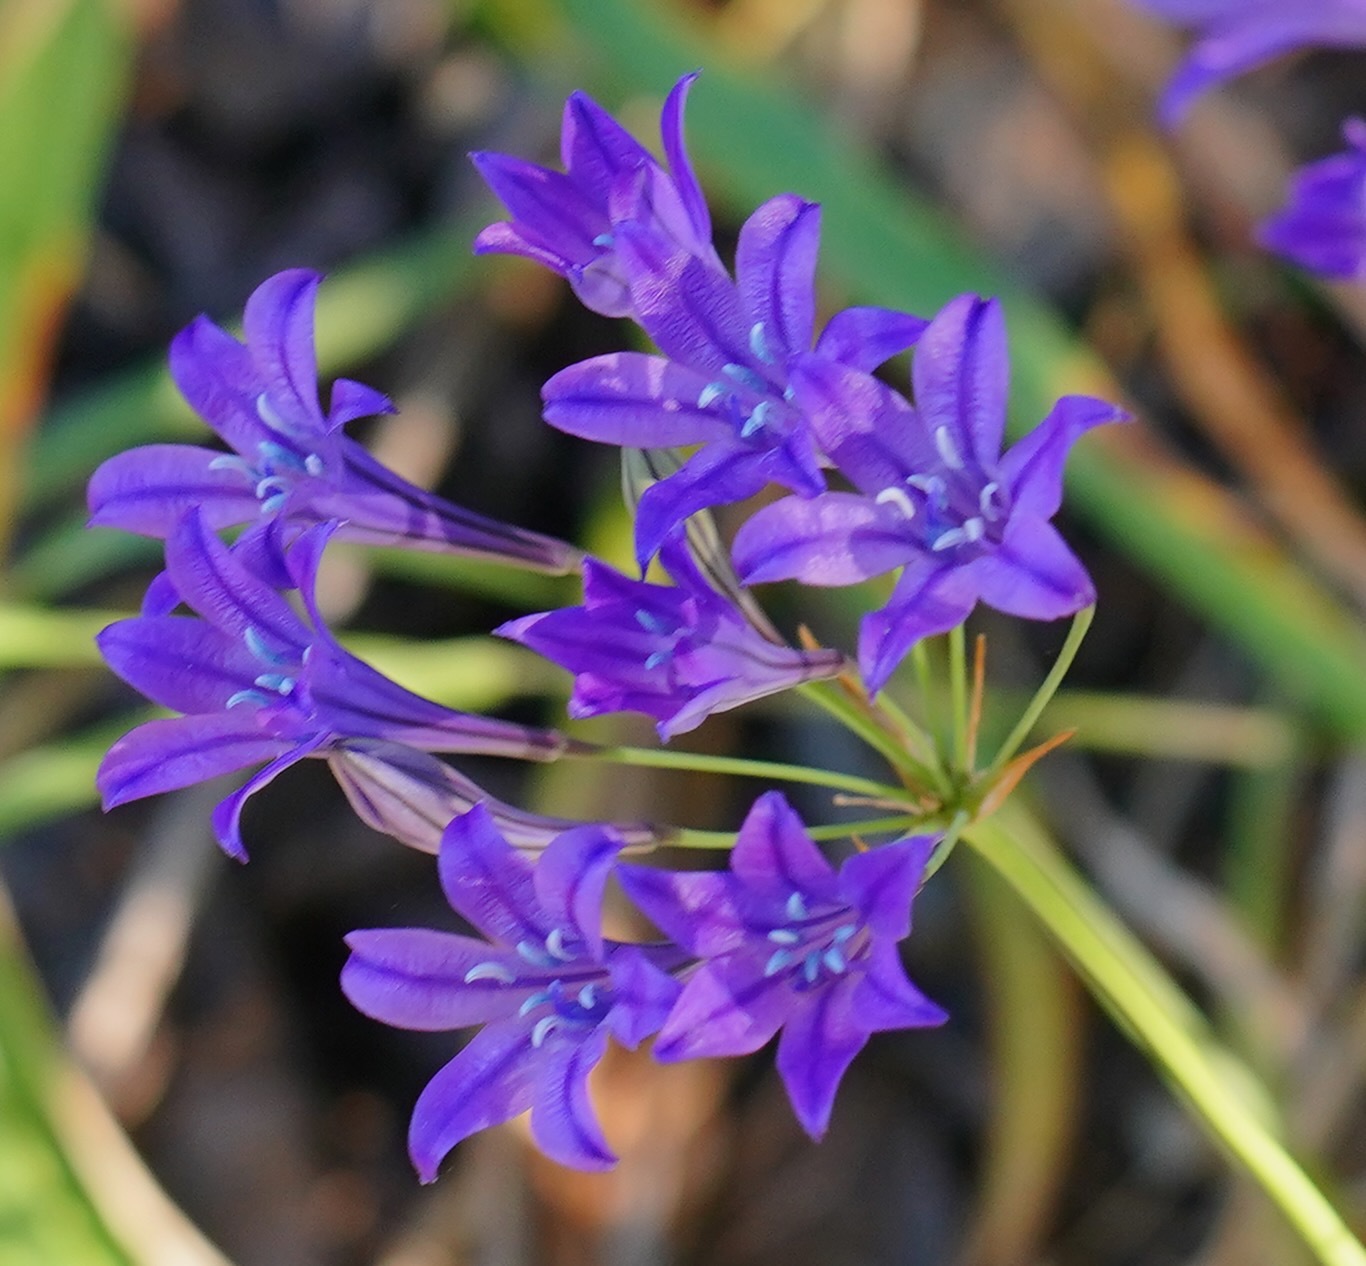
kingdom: Plantae
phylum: Tracheophyta
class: Liliopsida
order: Asparagales
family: Asparagaceae
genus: Triteleia
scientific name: Triteleia laxa
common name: Triplet-lily
